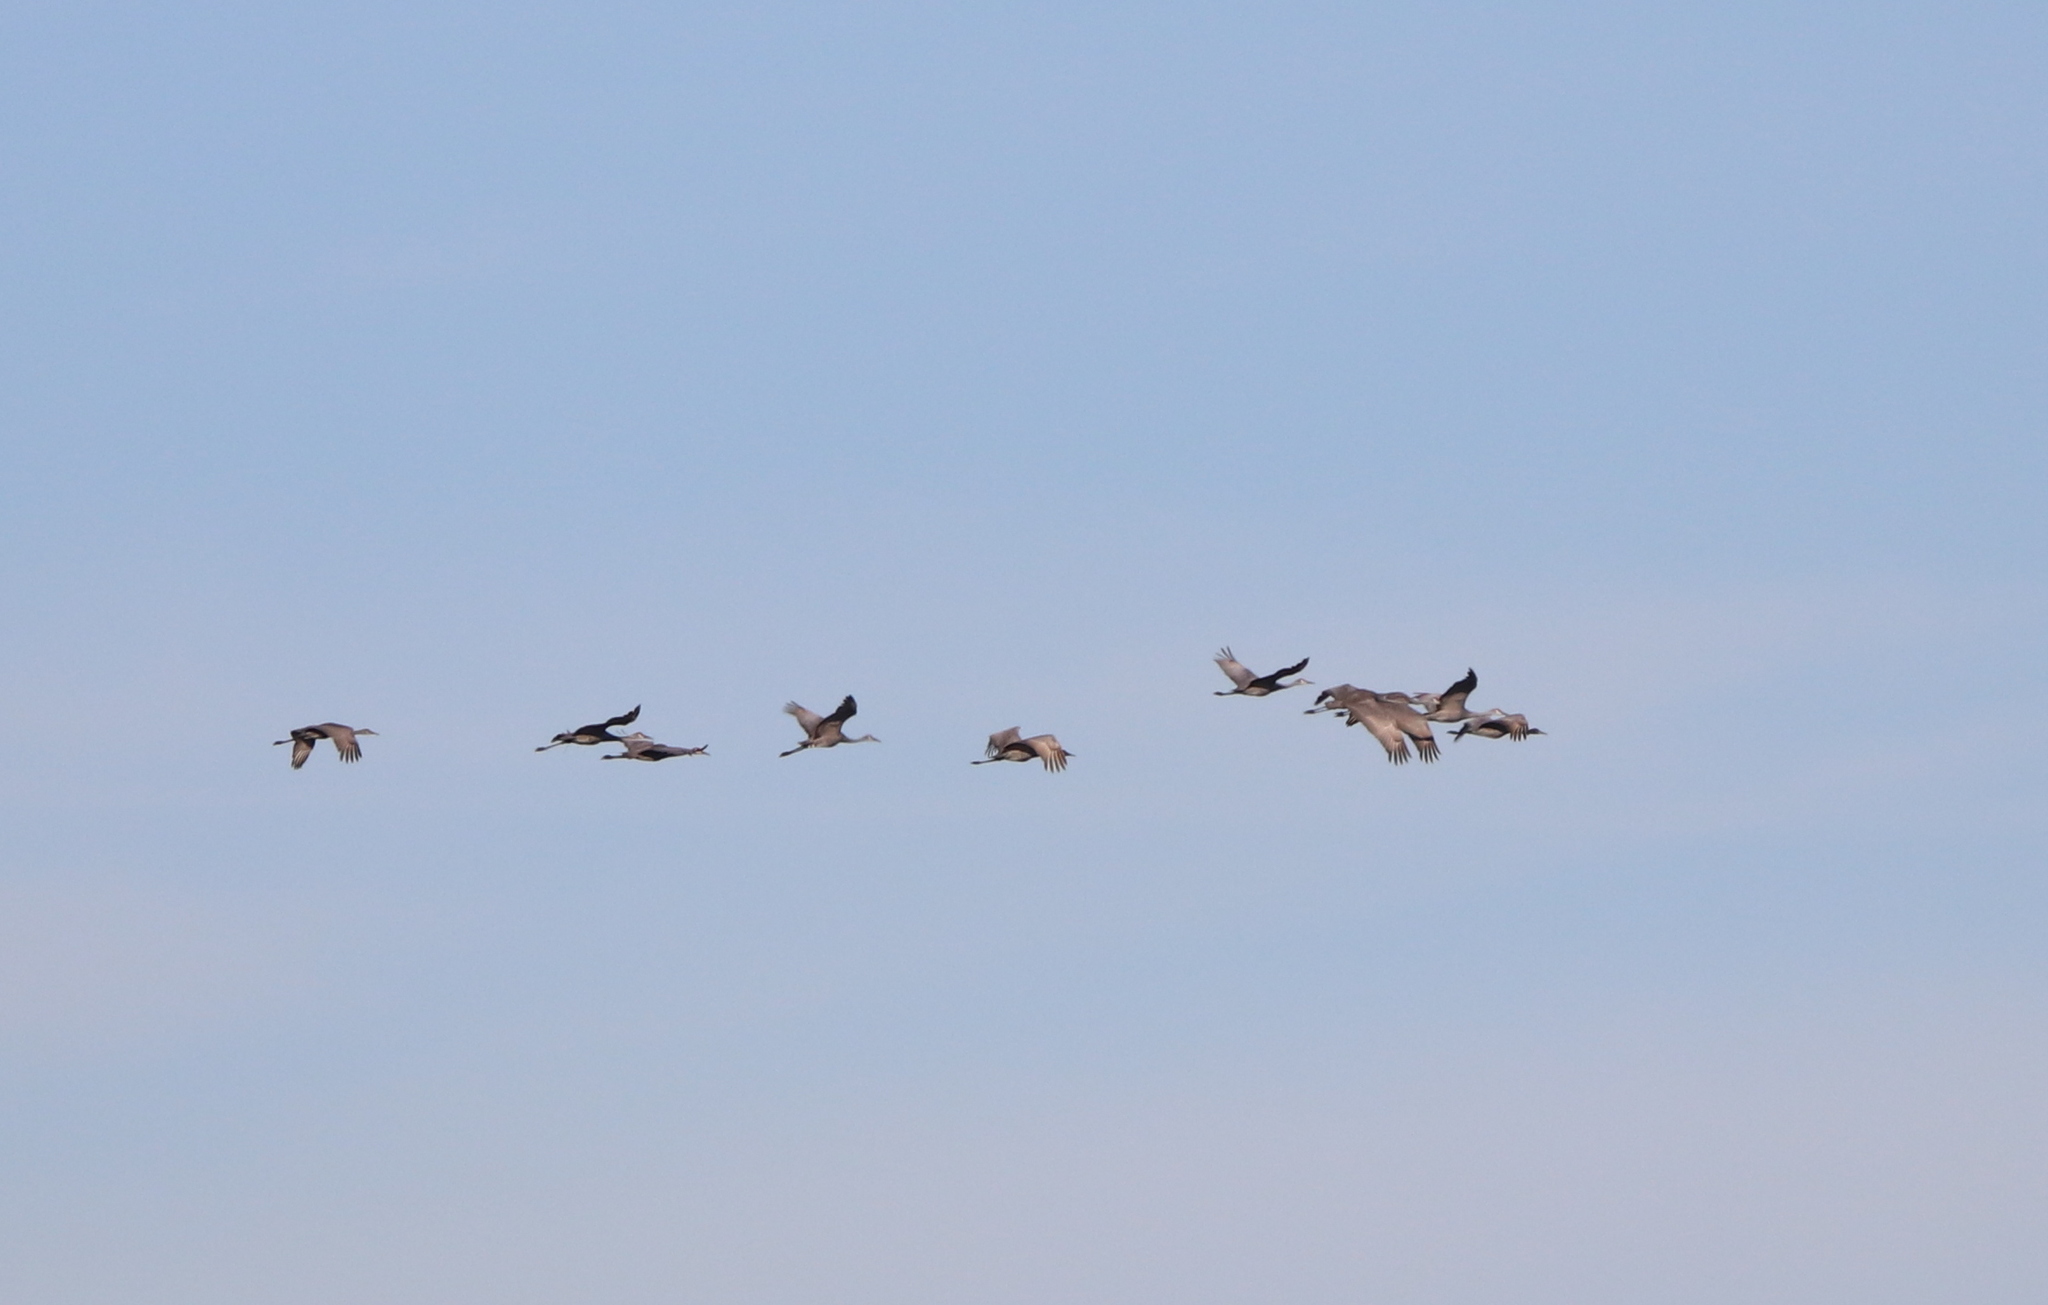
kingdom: Animalia
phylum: Chordata
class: Aves
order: Gruiformes
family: Gruidae
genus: Grus
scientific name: Grus canadensis
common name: Sandhill crane
